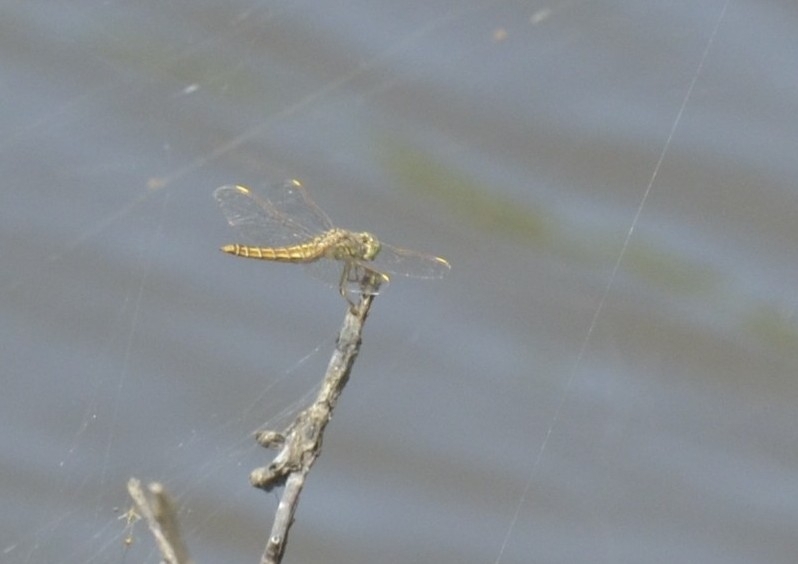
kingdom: Animalia
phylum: Arthropoda
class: Insecta
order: Odonata
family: Libellulidae
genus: Brachythemis
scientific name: Brachythemis contaminata
